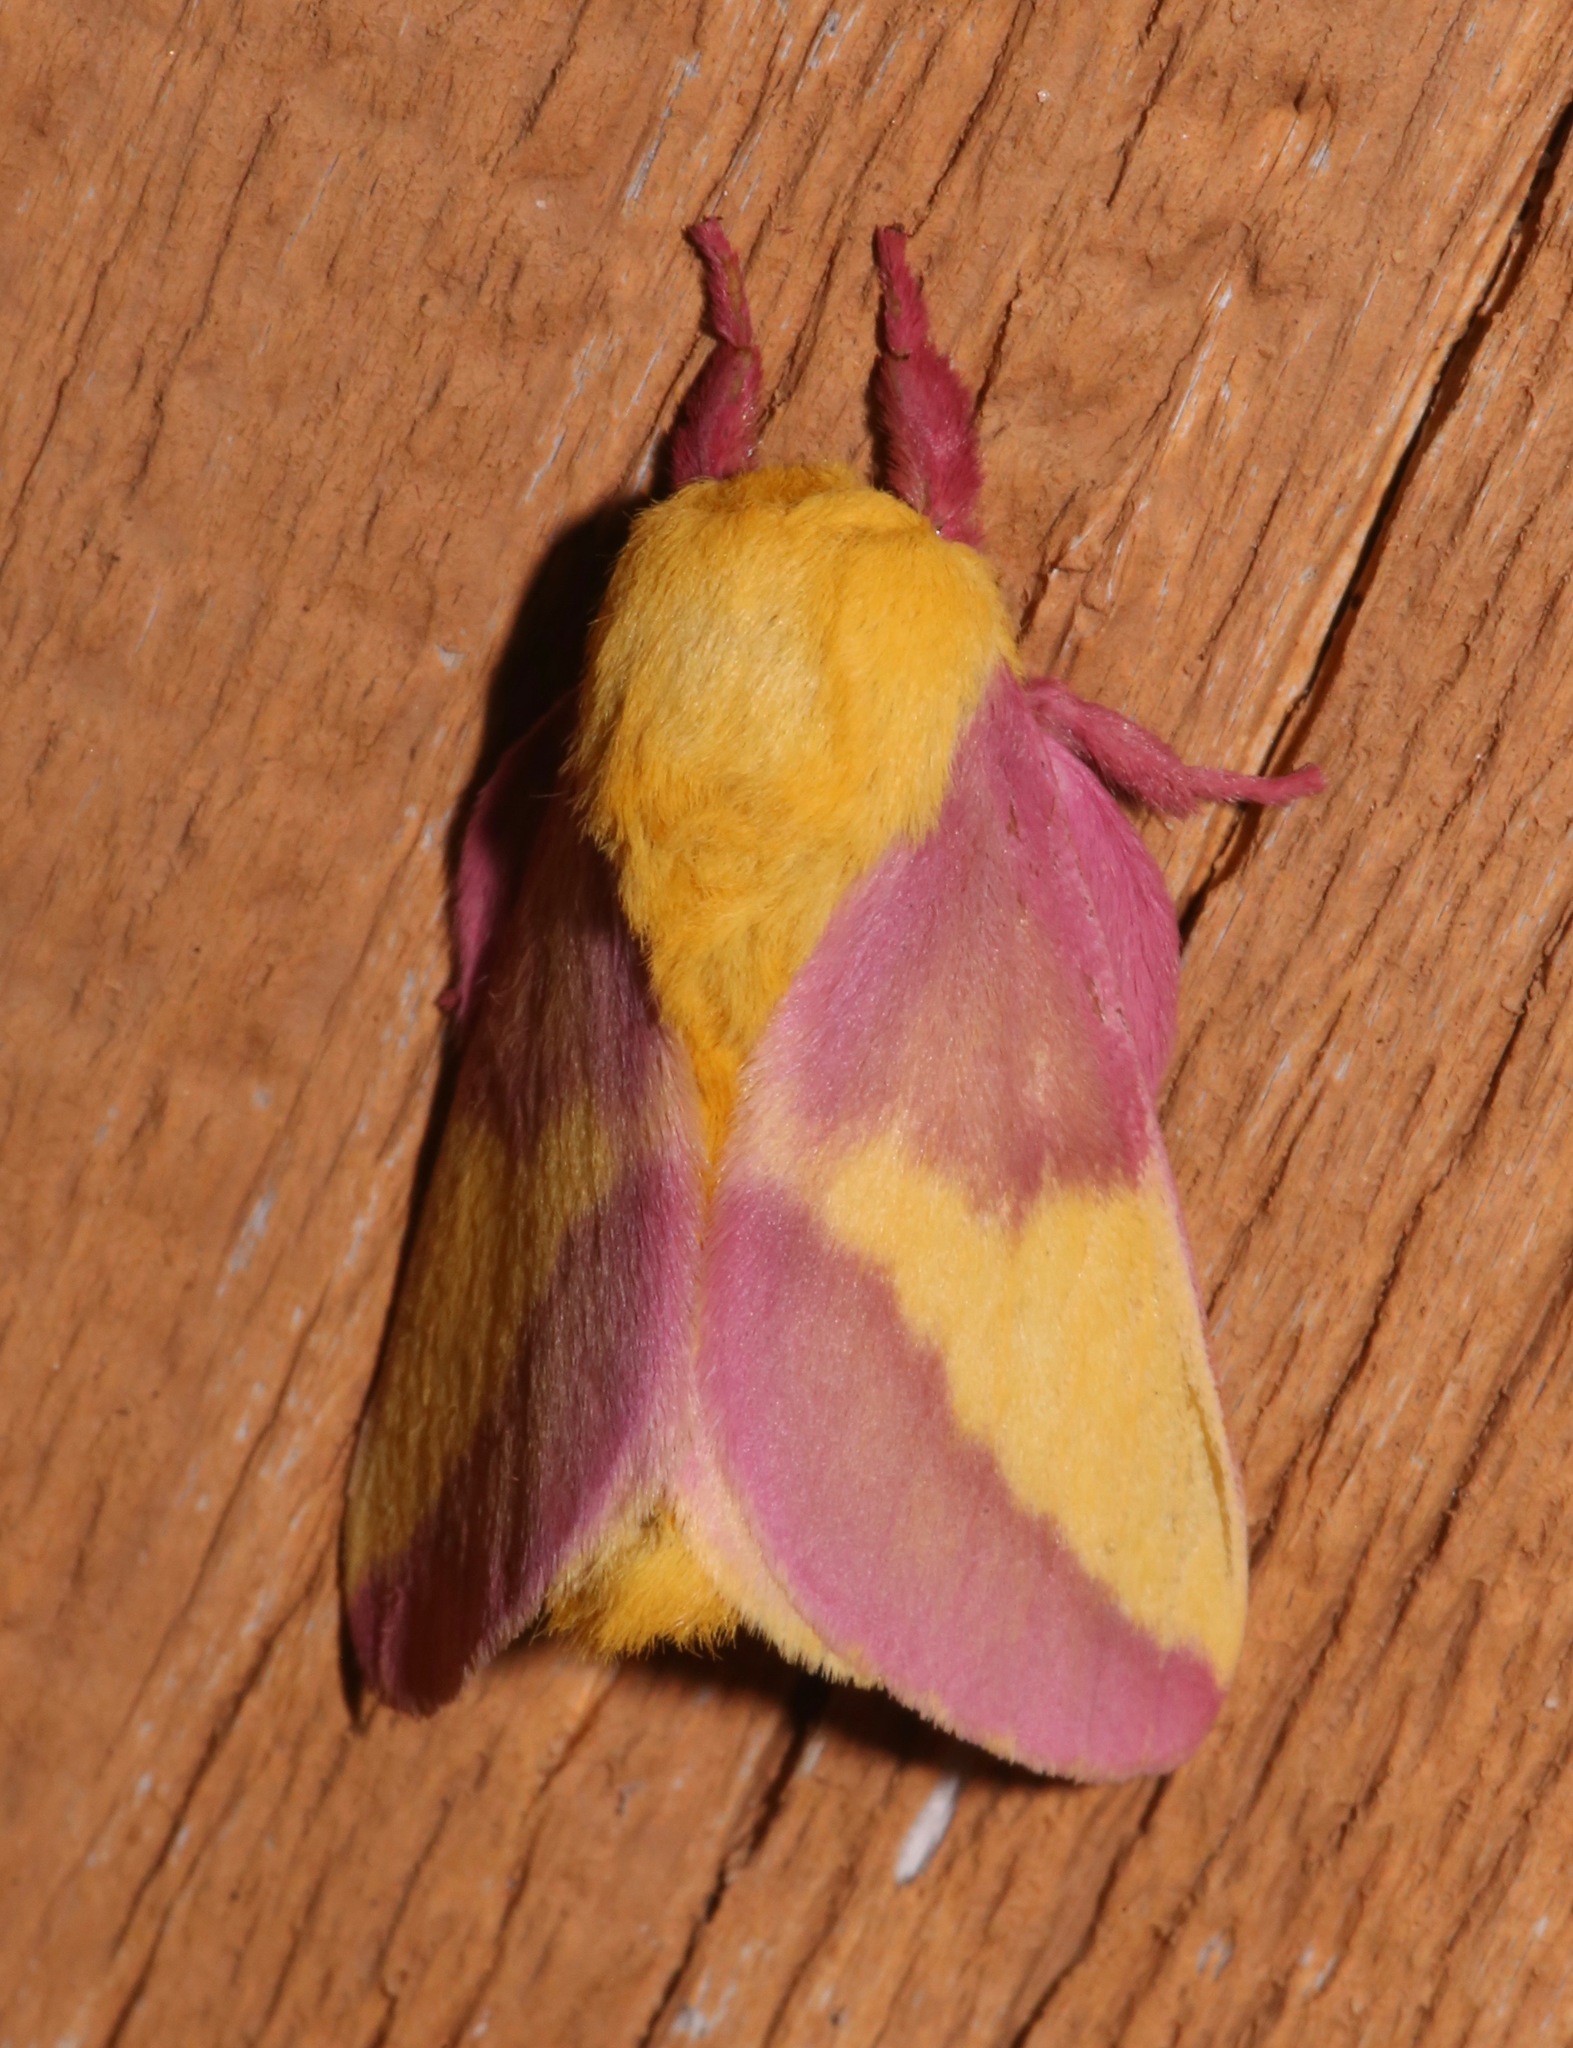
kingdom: Animalia
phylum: Arthropoda
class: Insecta
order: Lepidoptera
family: Saturniidae
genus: Dryocampa
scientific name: Dryocampa rubicunda
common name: Rosy maple moth
